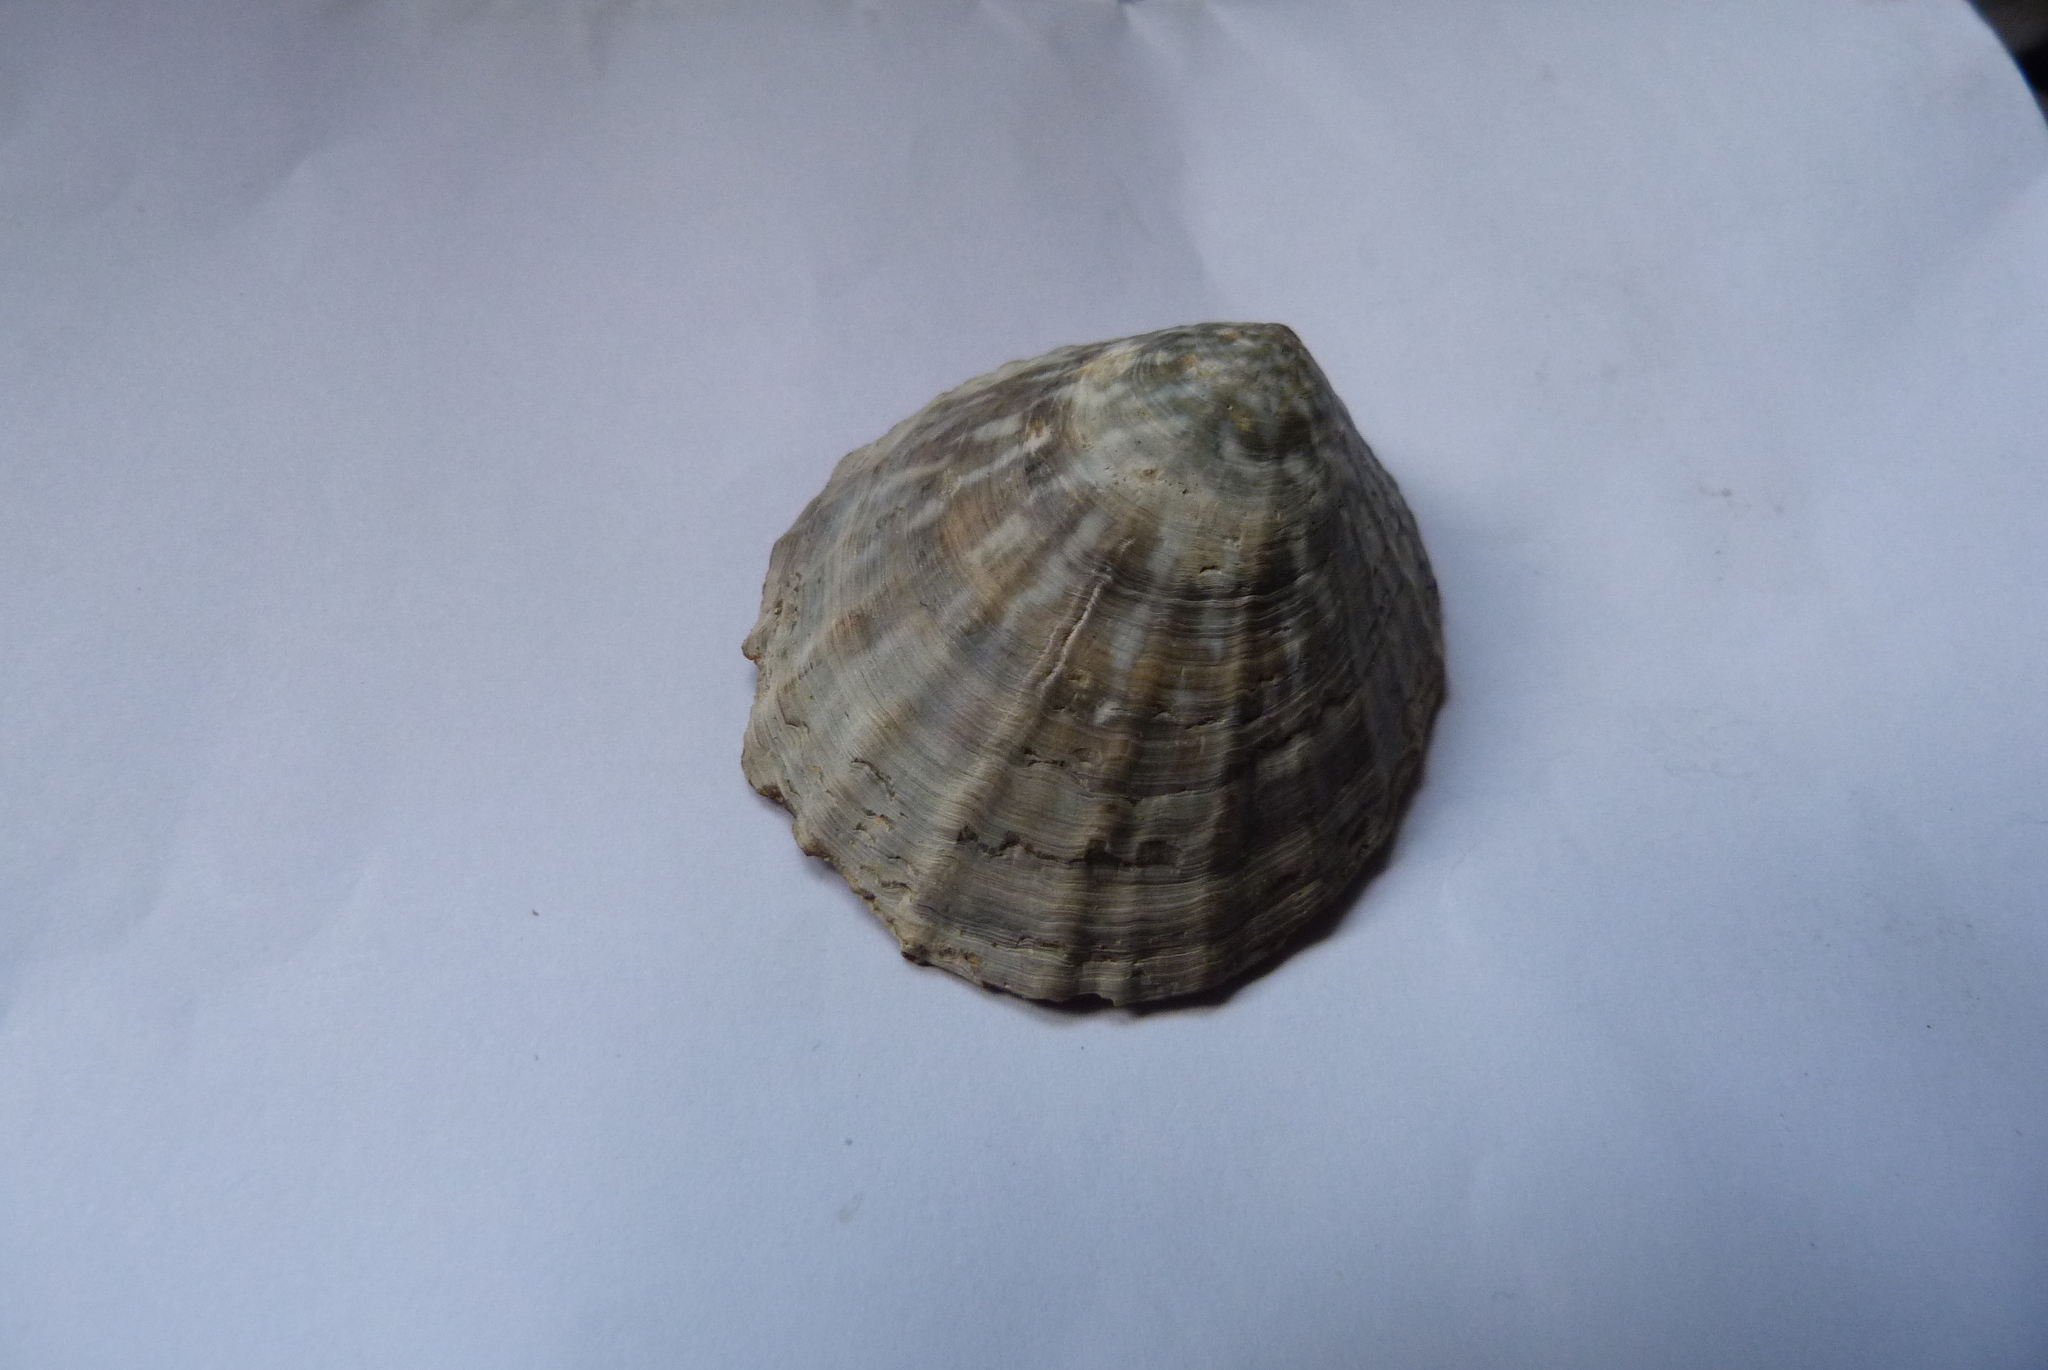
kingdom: Animalia
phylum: Mollusca
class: Gastropoda
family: Nacellidae
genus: Cellana
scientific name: Cellana strigilis
